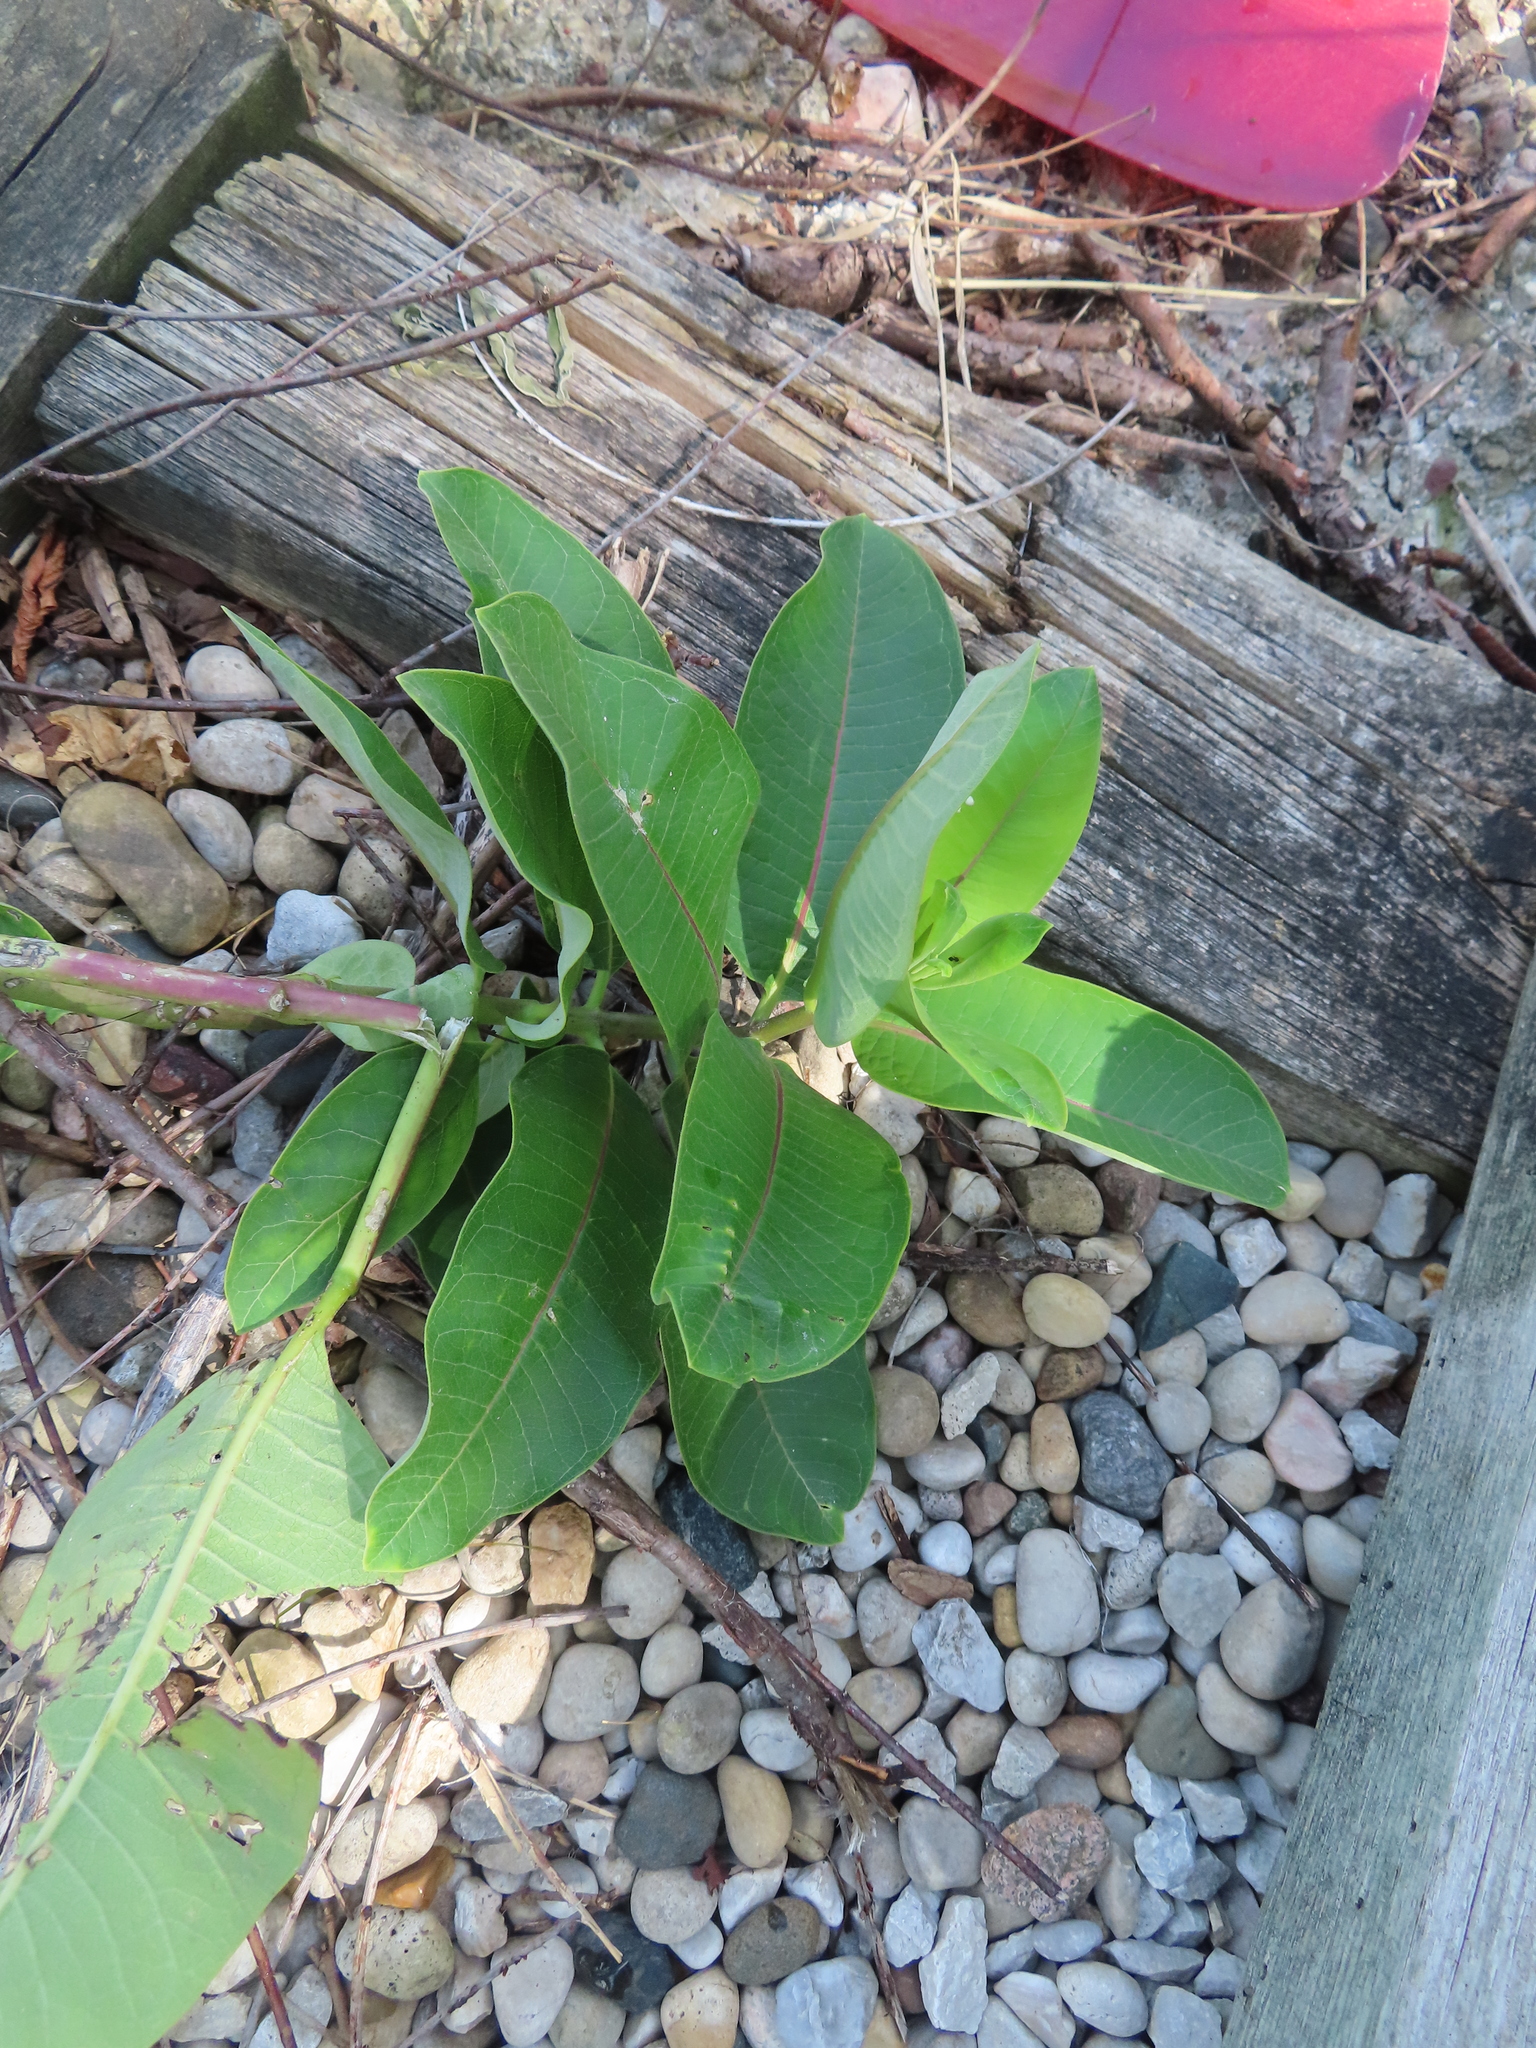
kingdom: Plantae
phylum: Tracheophyta
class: Magnoliopsida
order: Gentianales
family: Apocynaceae
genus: Asclepias
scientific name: Asclepias syriaca
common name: Common milkweed
